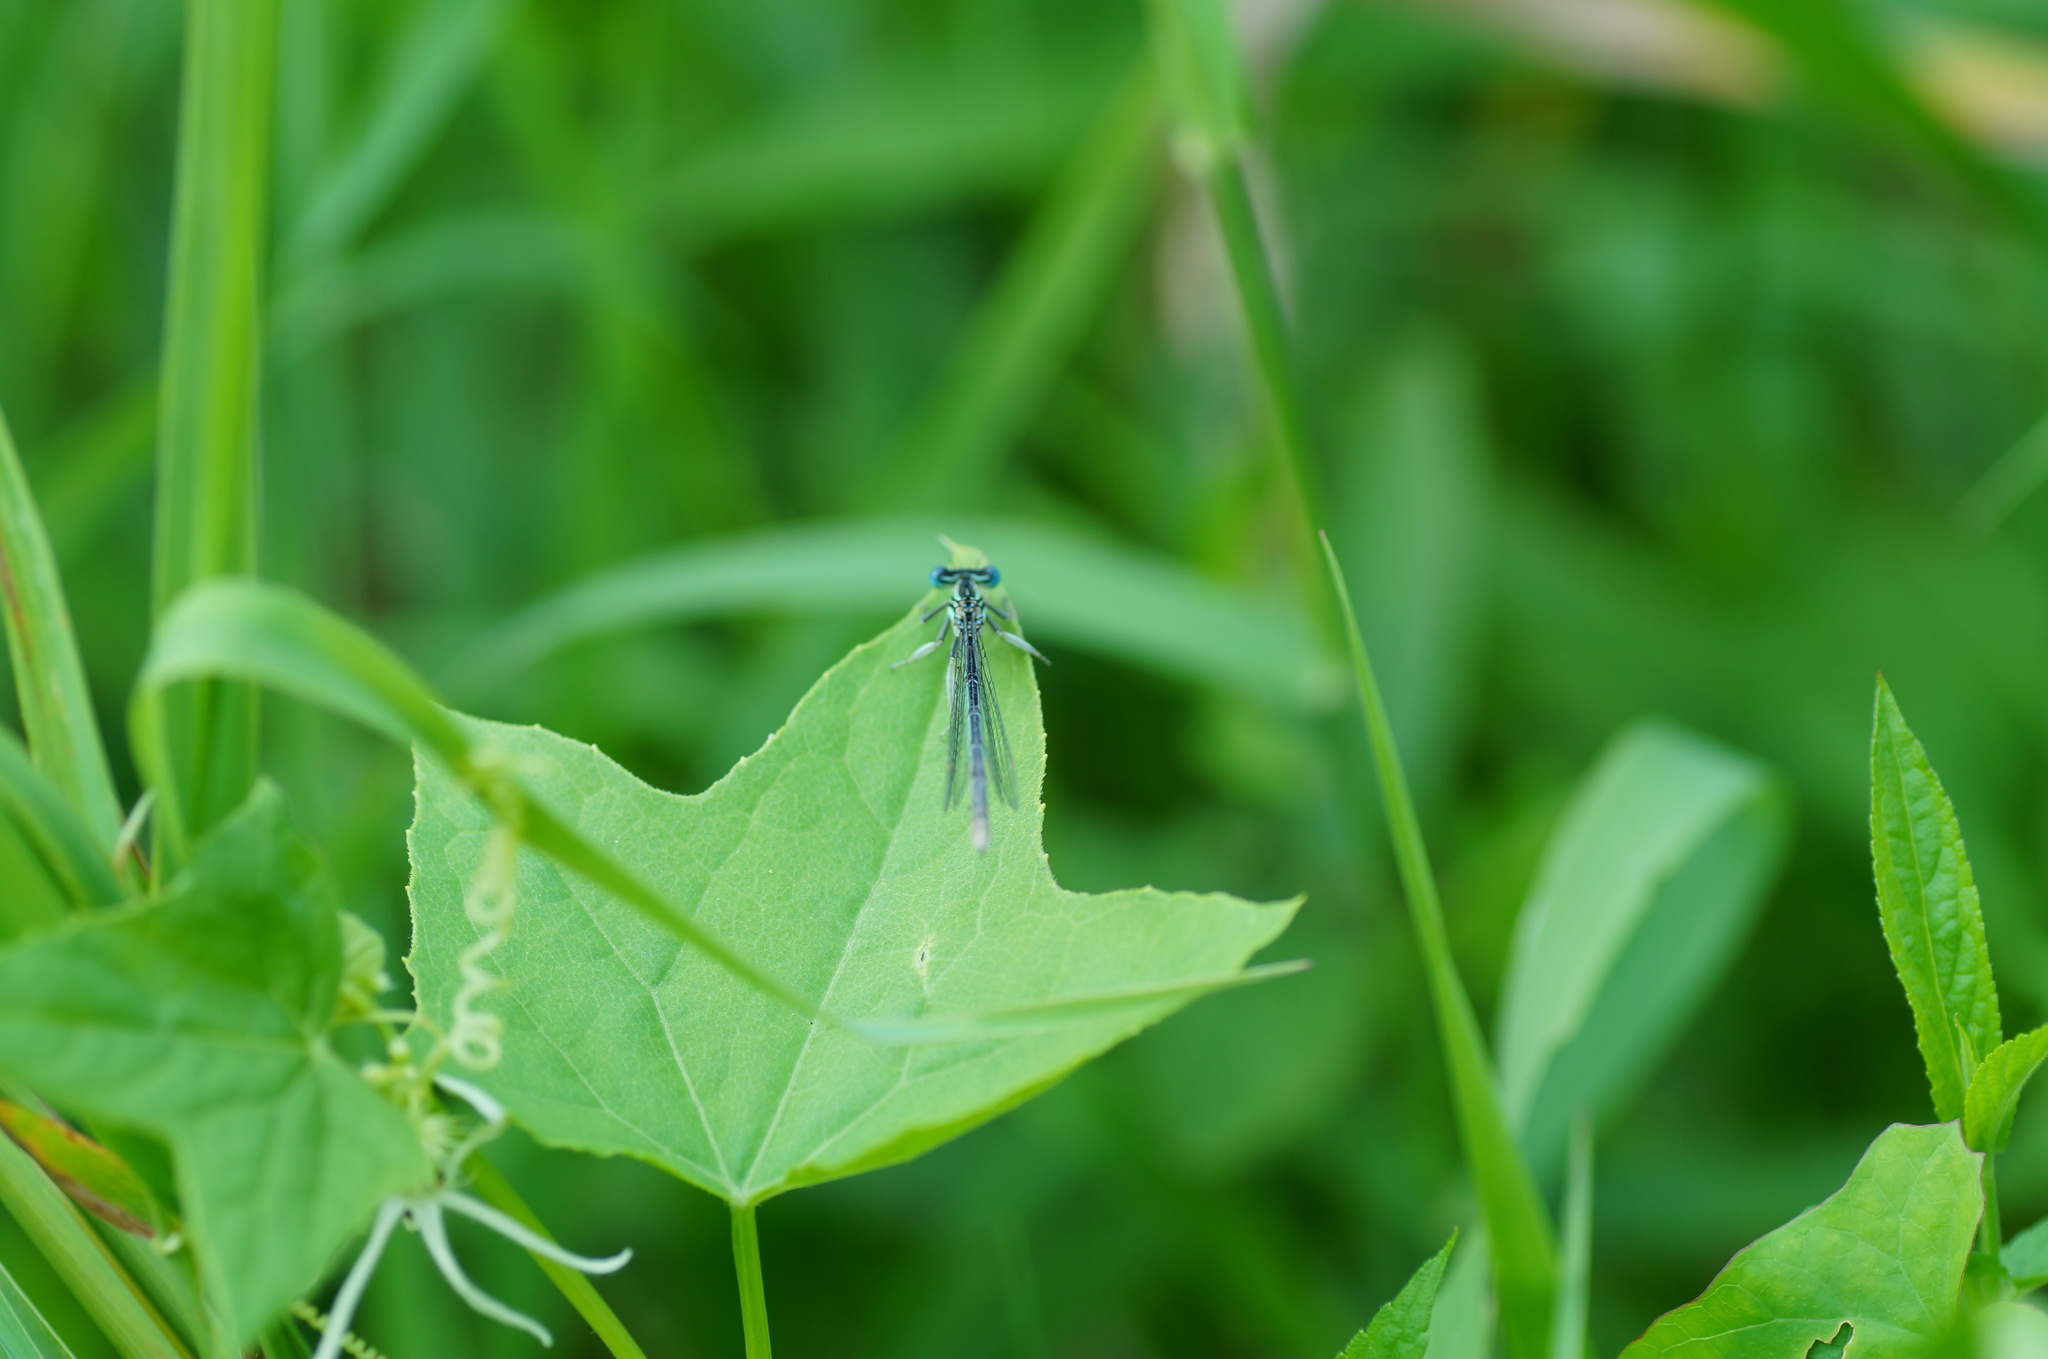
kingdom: Animalia
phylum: Arthropoda
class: Insecta
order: Odonata
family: Platycnemididae
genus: Platycnemis
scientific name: Platycnemis pennipes
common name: White-legged damselfly
